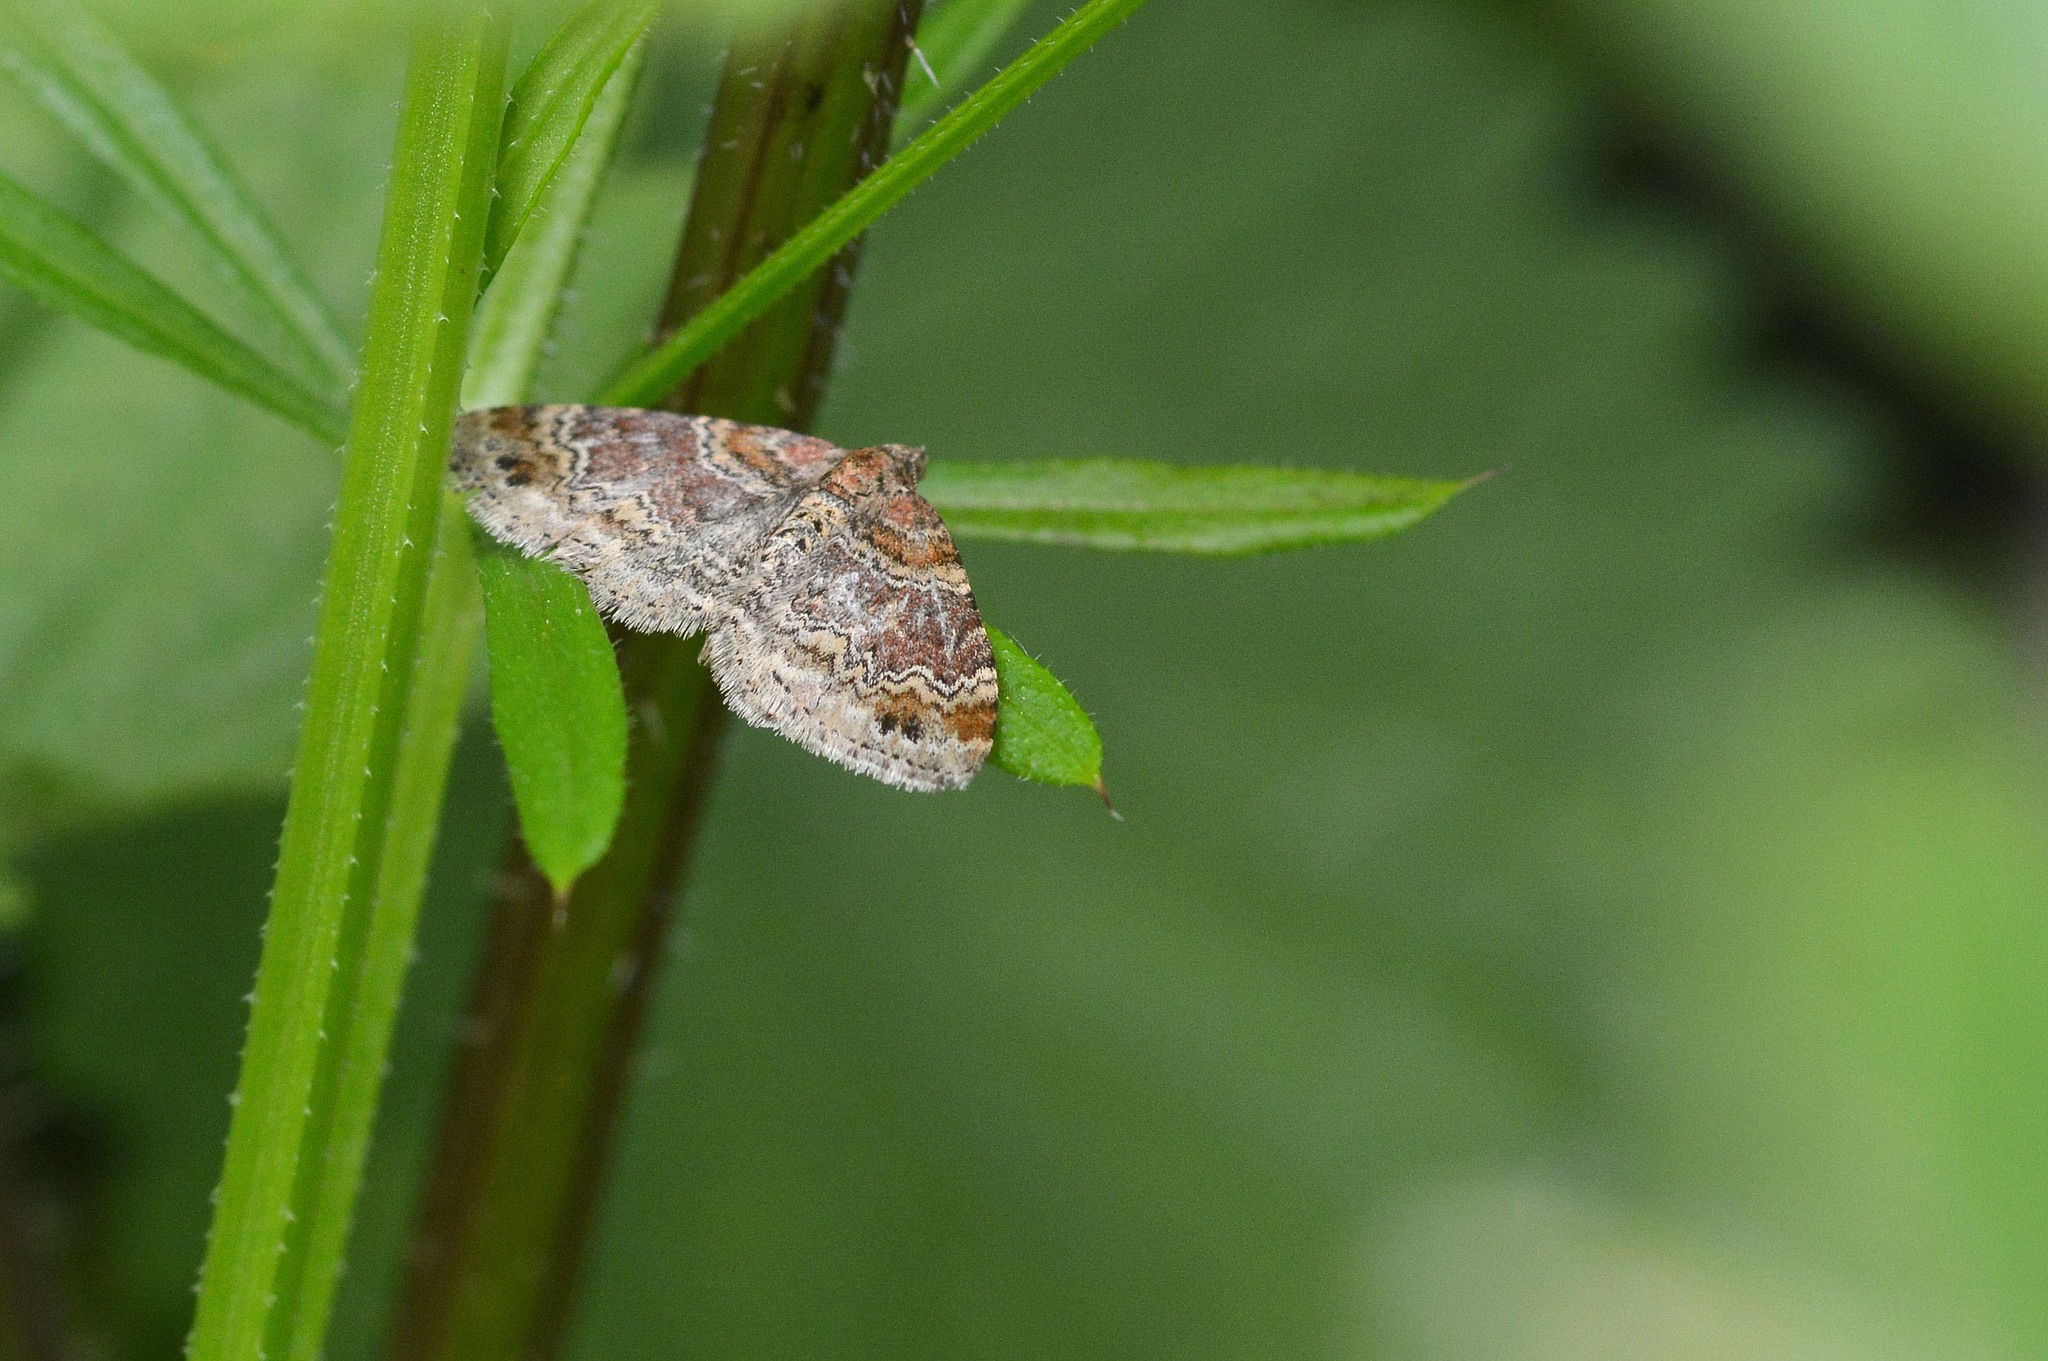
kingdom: Animalia
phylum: Arthropoda
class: Insecta
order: Lepidoptera
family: Geometridae
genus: Xanthorhoe
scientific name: Xanthorhoe spadicearia
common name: Red twin-spot carpet
